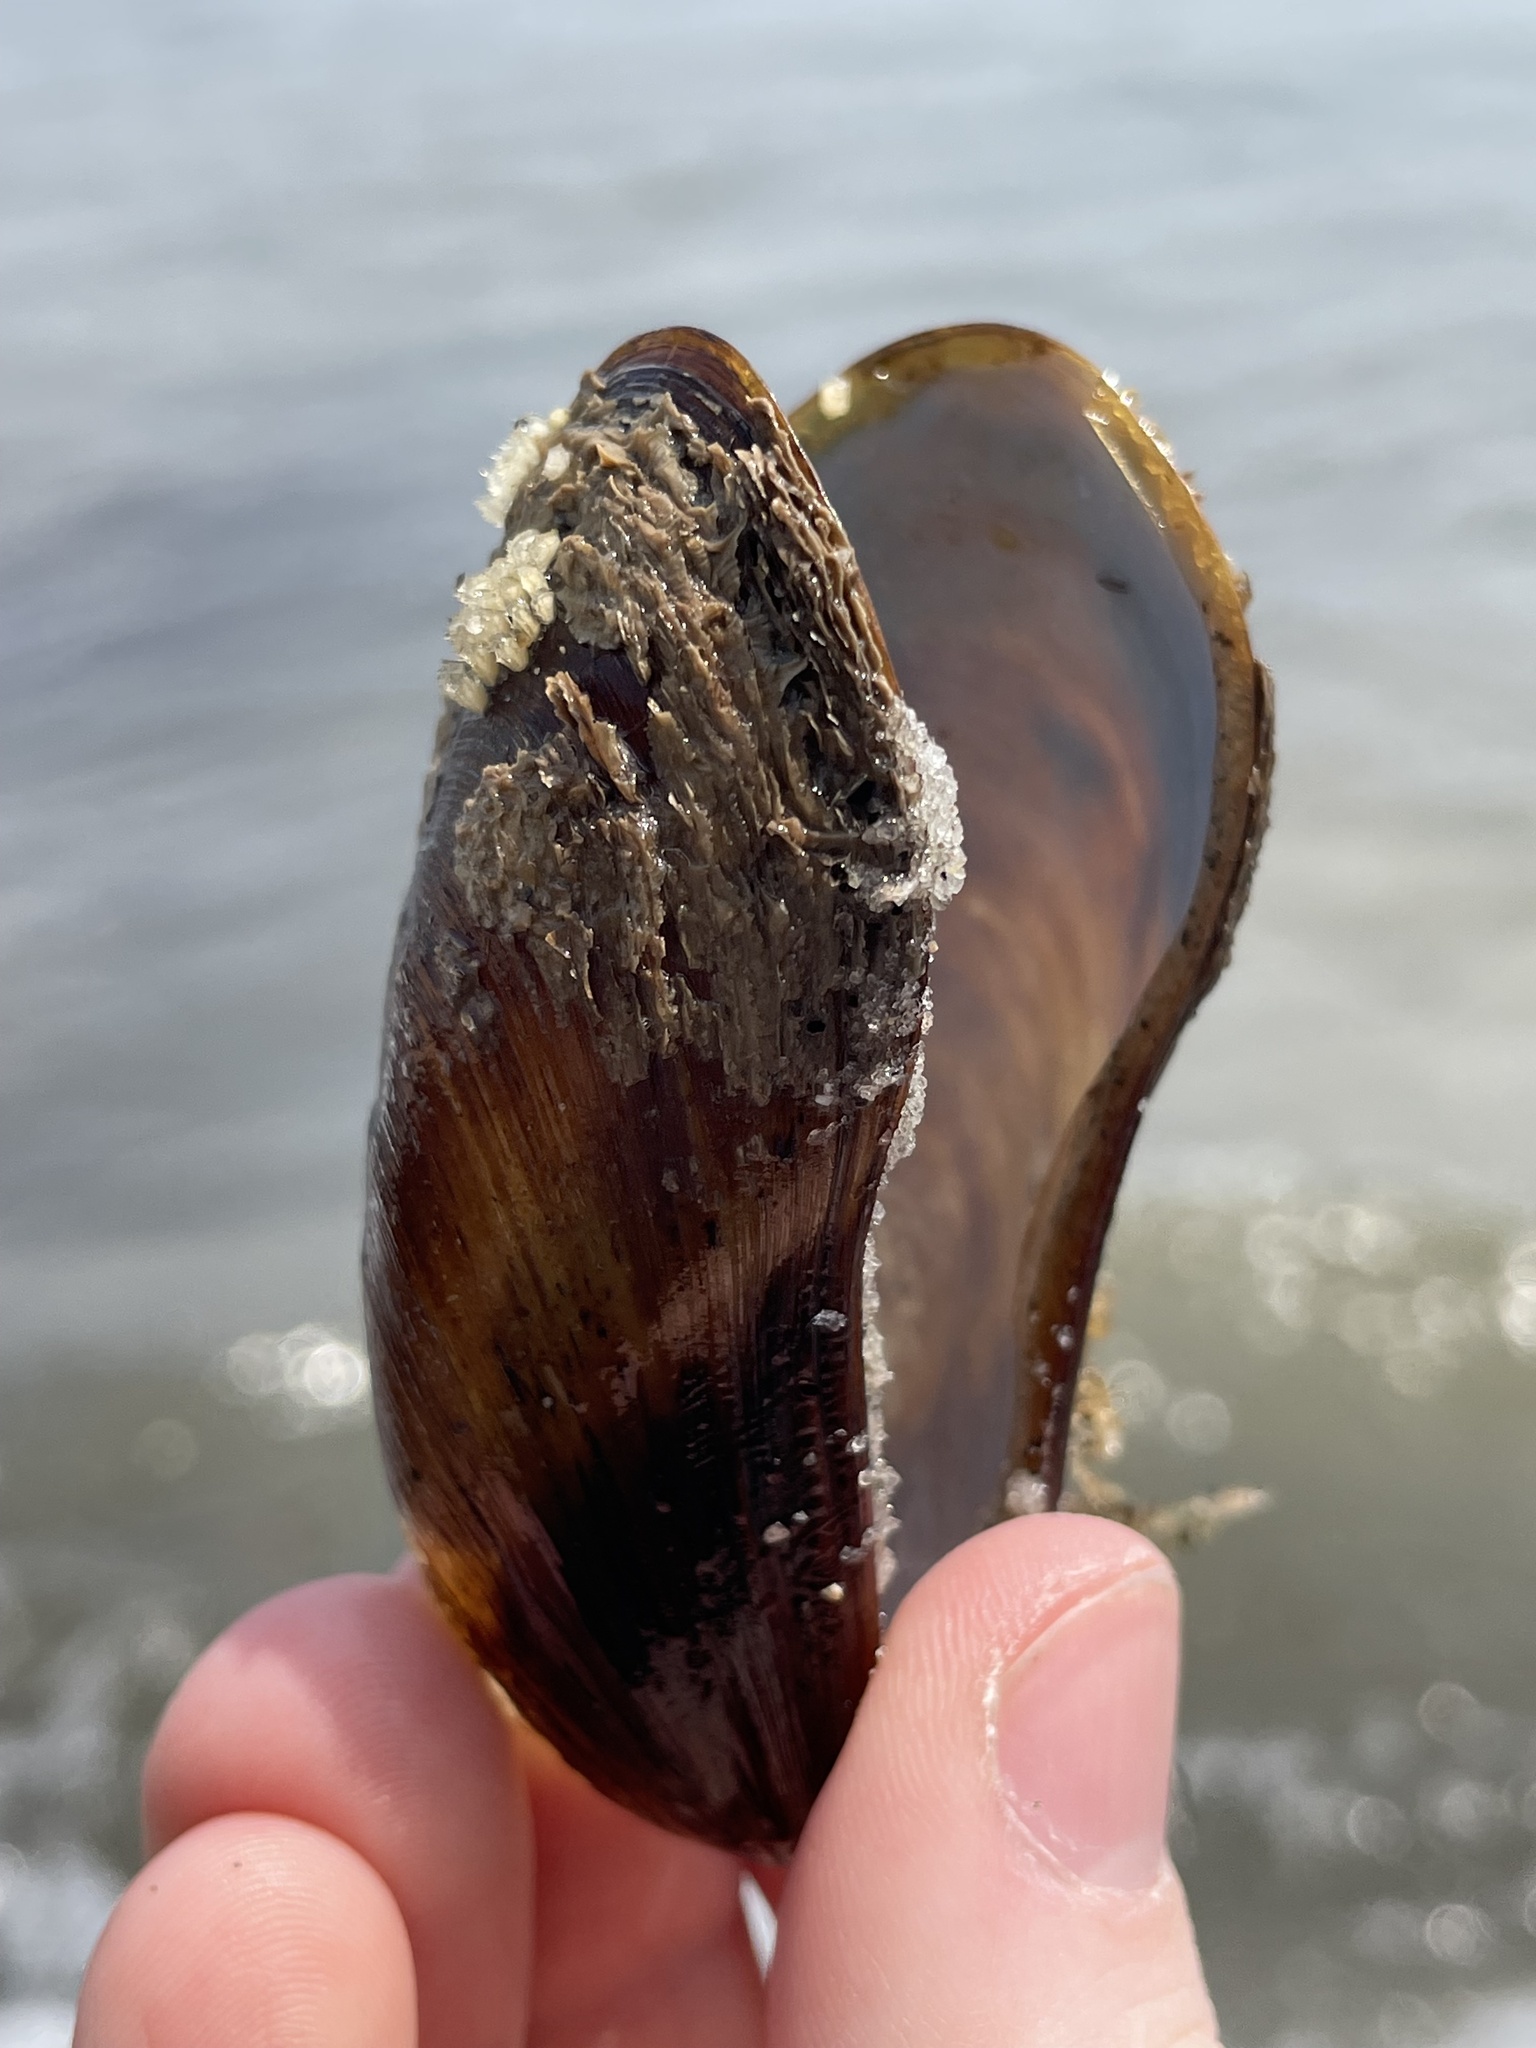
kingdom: Animalia
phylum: Mollusca
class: Bivalvia
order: Mytilida
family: Mytilidae
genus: Modiolus
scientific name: Modiolus modiolus
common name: Horse-mussel
